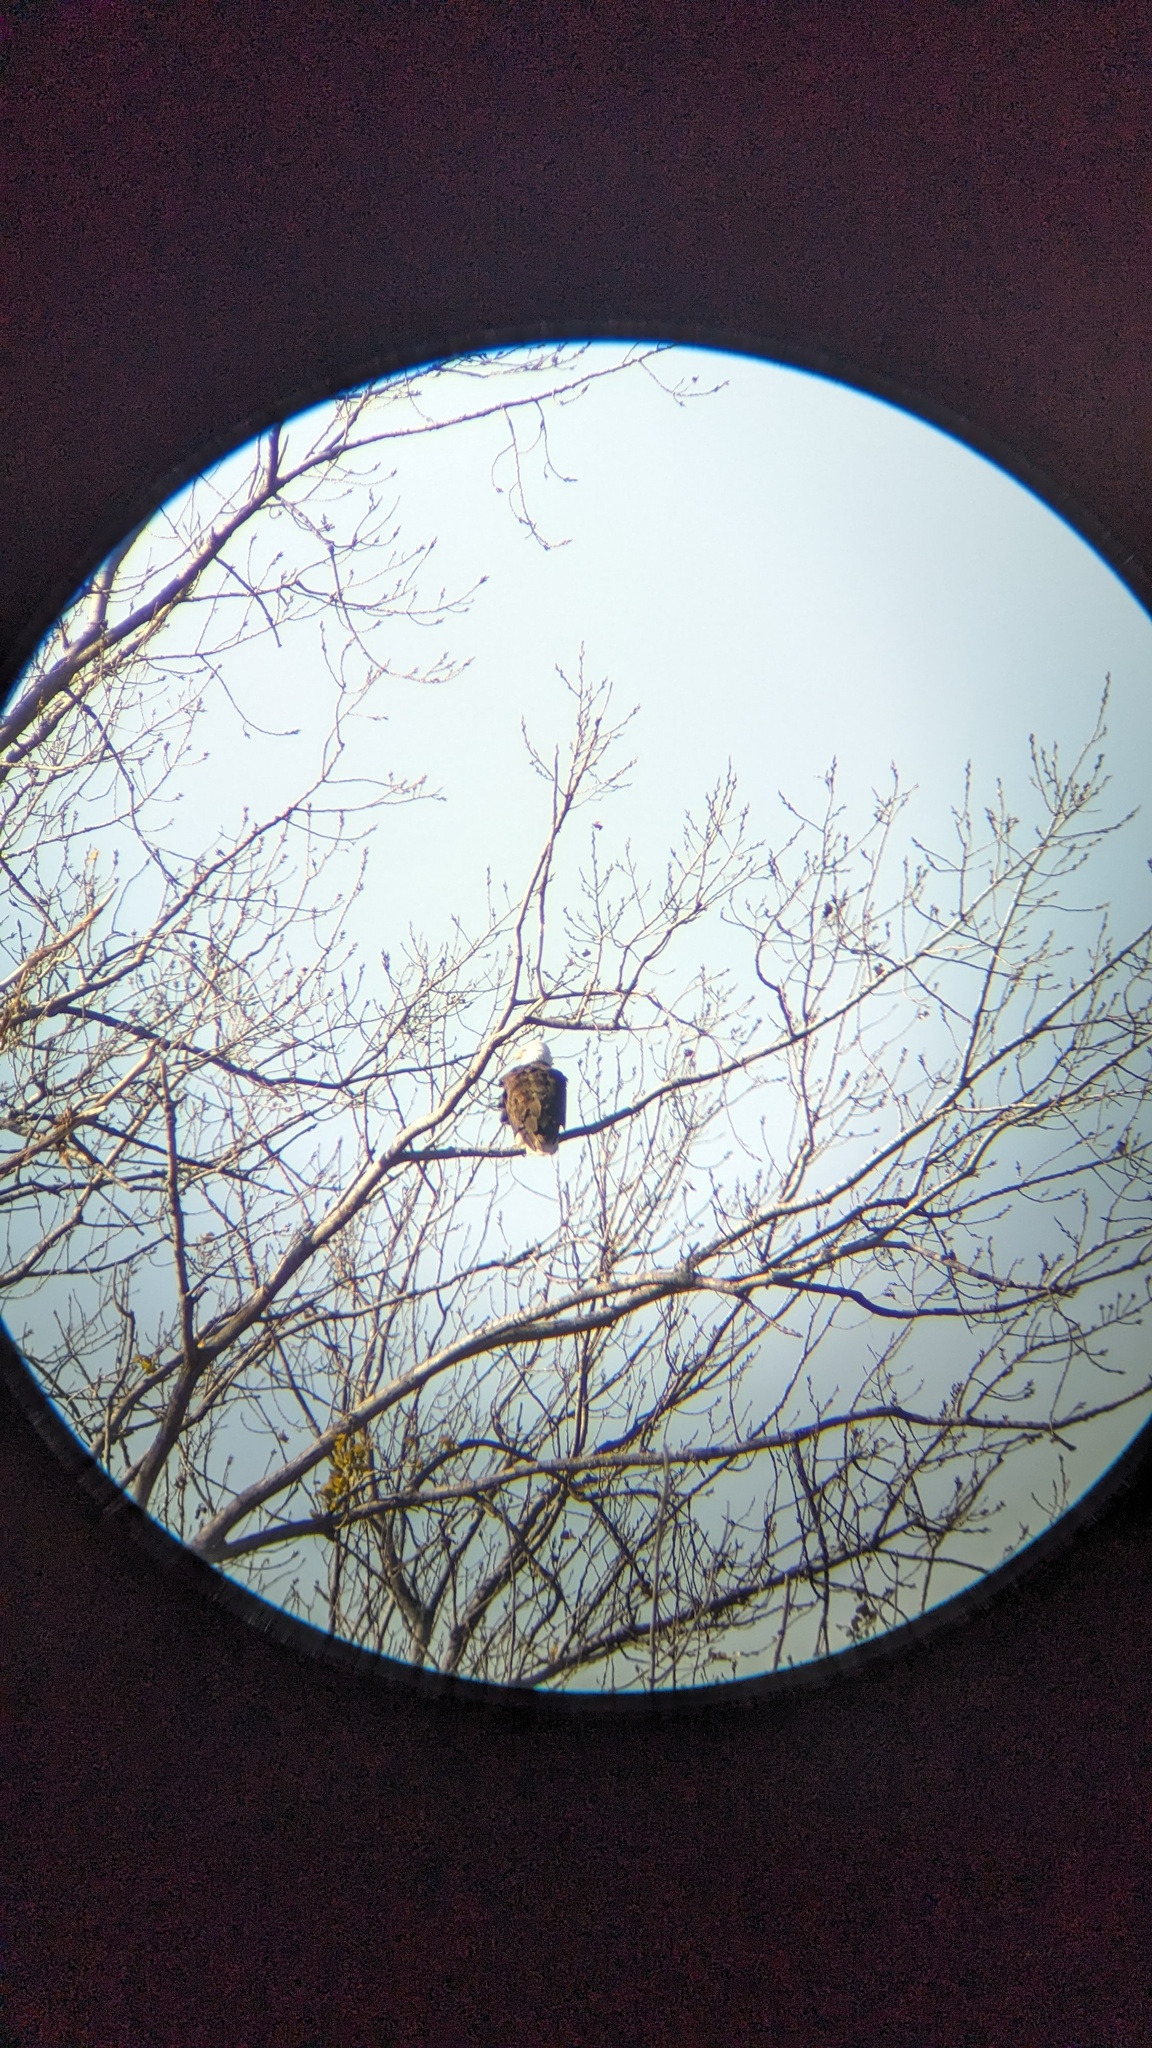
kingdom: Animalia
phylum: Chordata
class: Aves
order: Accipitriformes
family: Accipitridae
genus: Haliaeetus
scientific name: Haliaeetus leucocephalus
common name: Bald eagle
